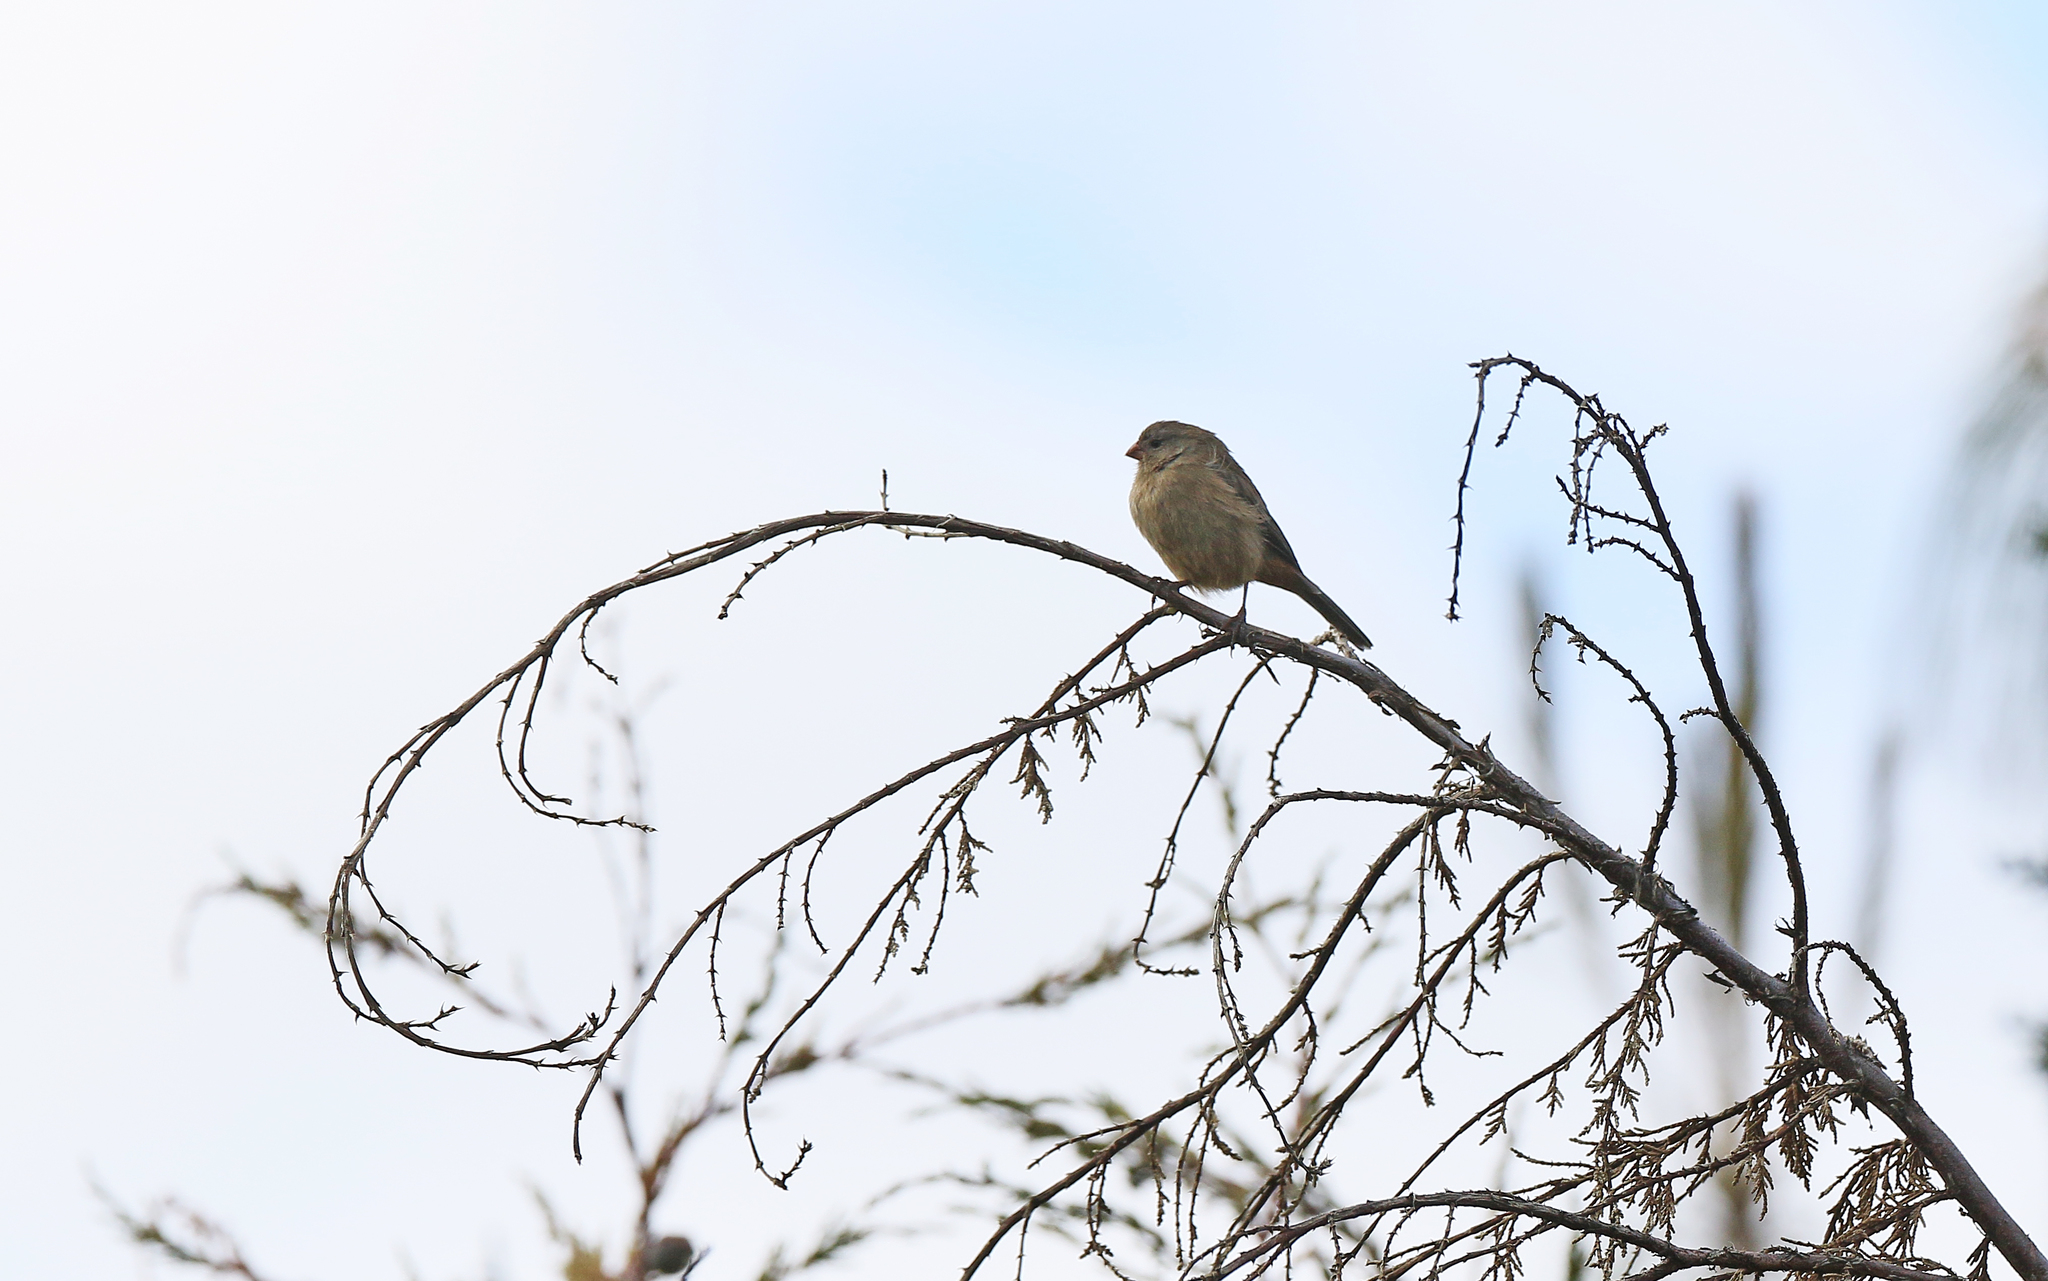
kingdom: Animalia
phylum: Chordata
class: Aves
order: Passeriformes
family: Thraupidae
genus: Catamenia
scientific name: Catamenia inornata
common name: Plain-colored seedeater
